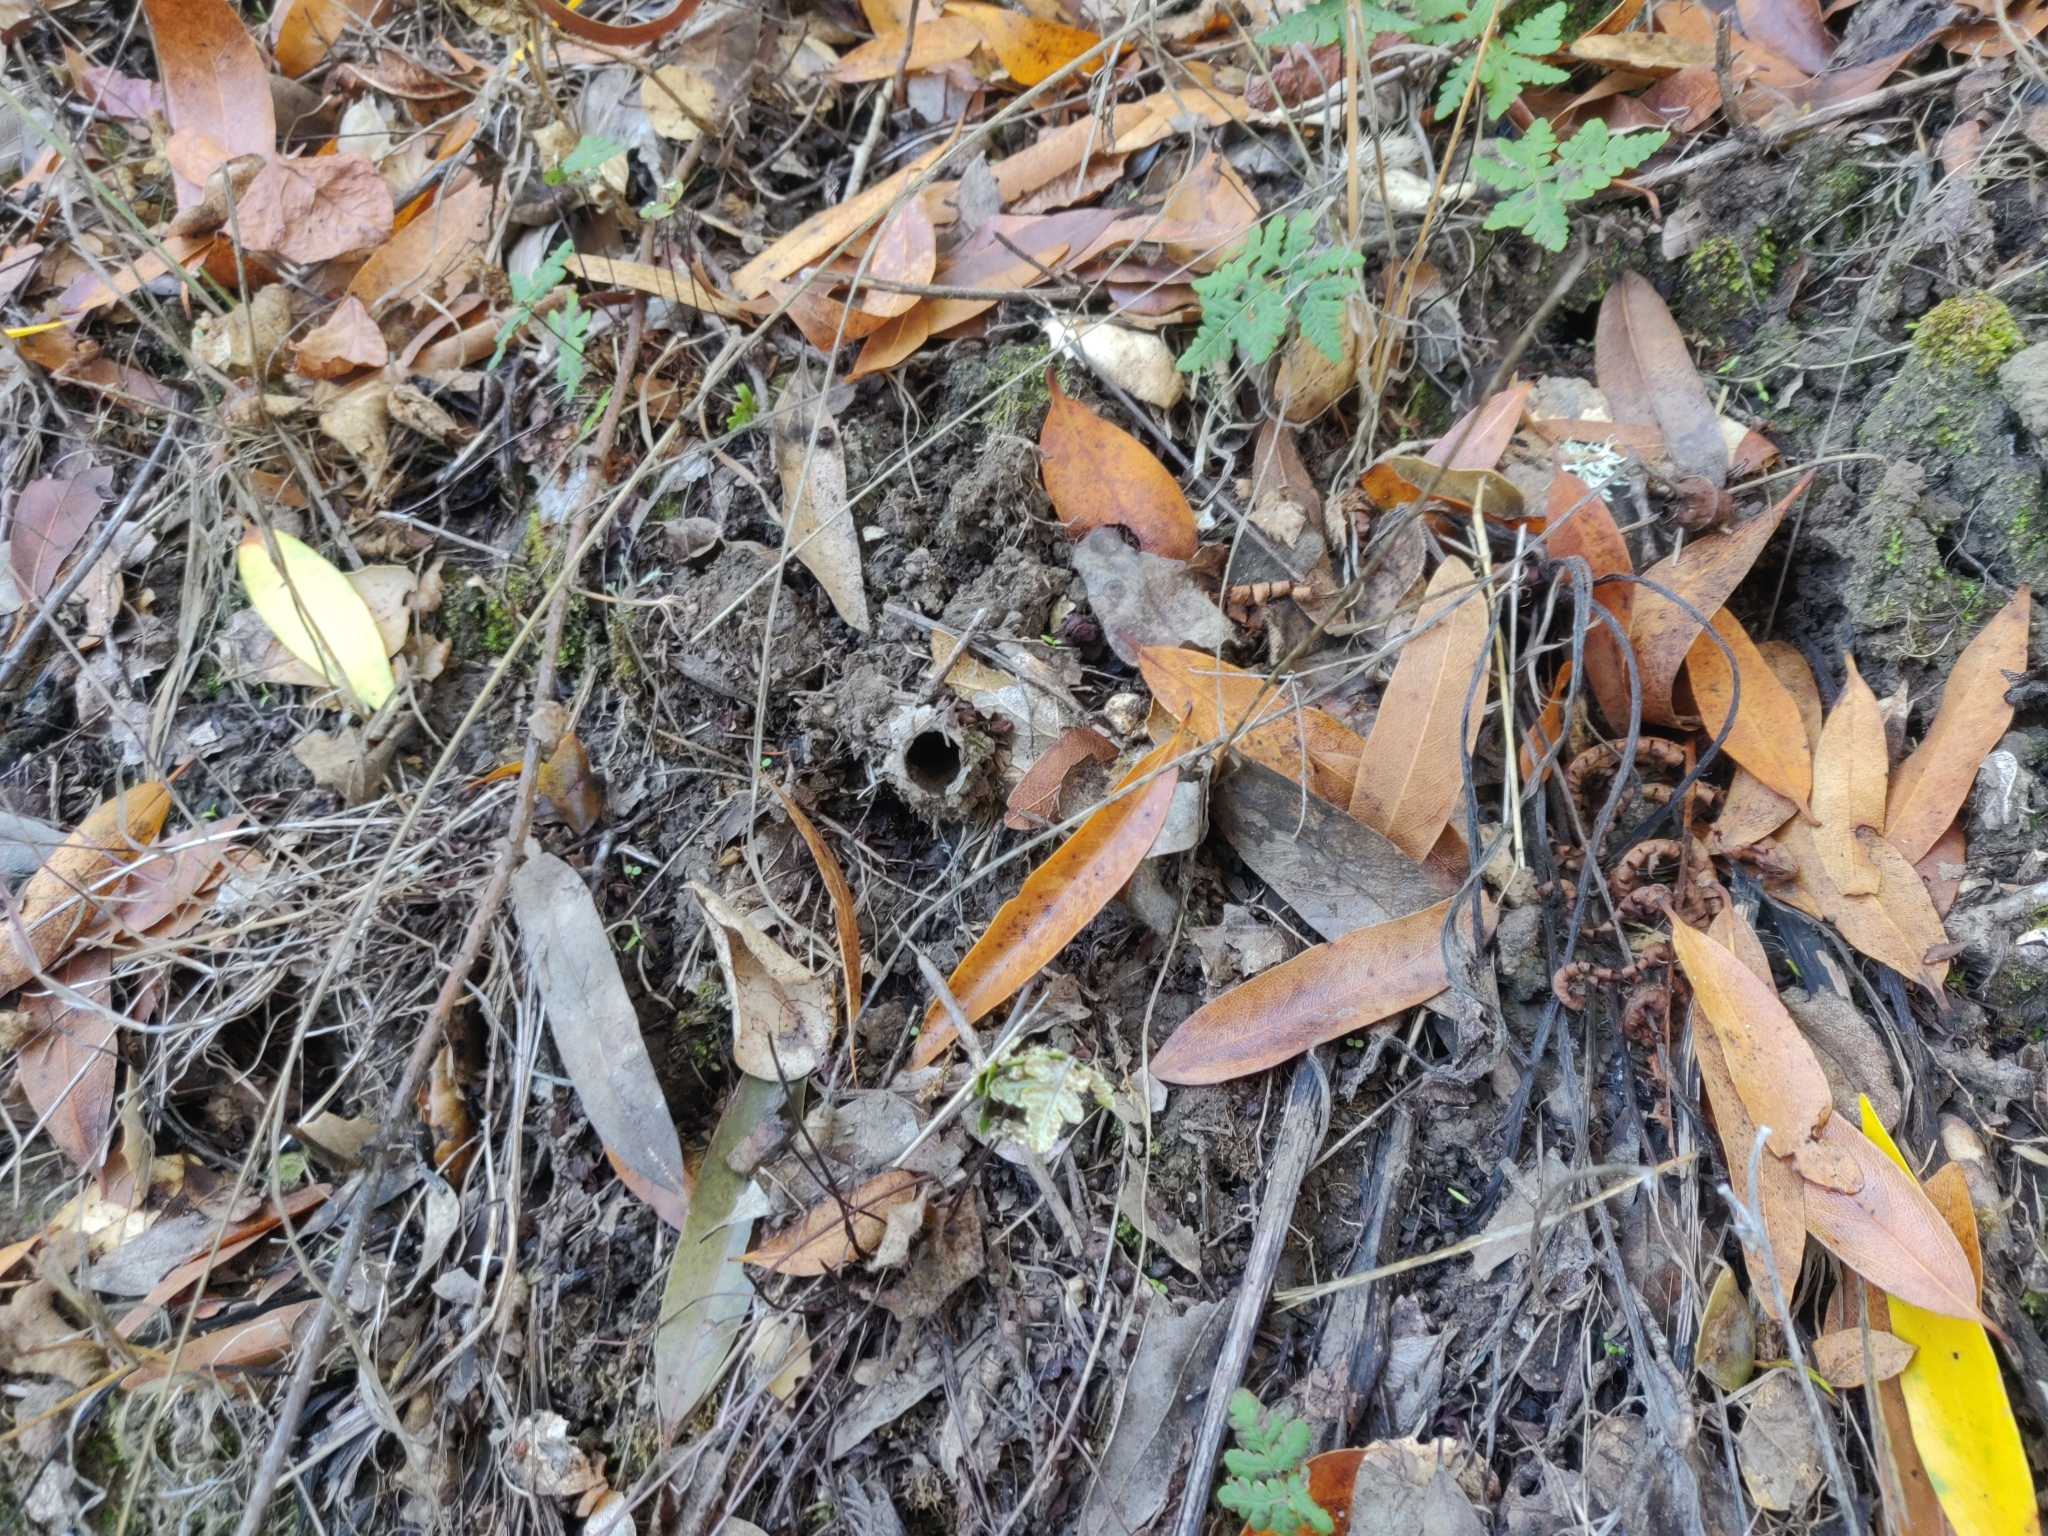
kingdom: Animalia
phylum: Arthropoda
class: Arachnida
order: Araneae
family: Antrodiaetidae
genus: Atypoides
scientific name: Atypoides riversi
